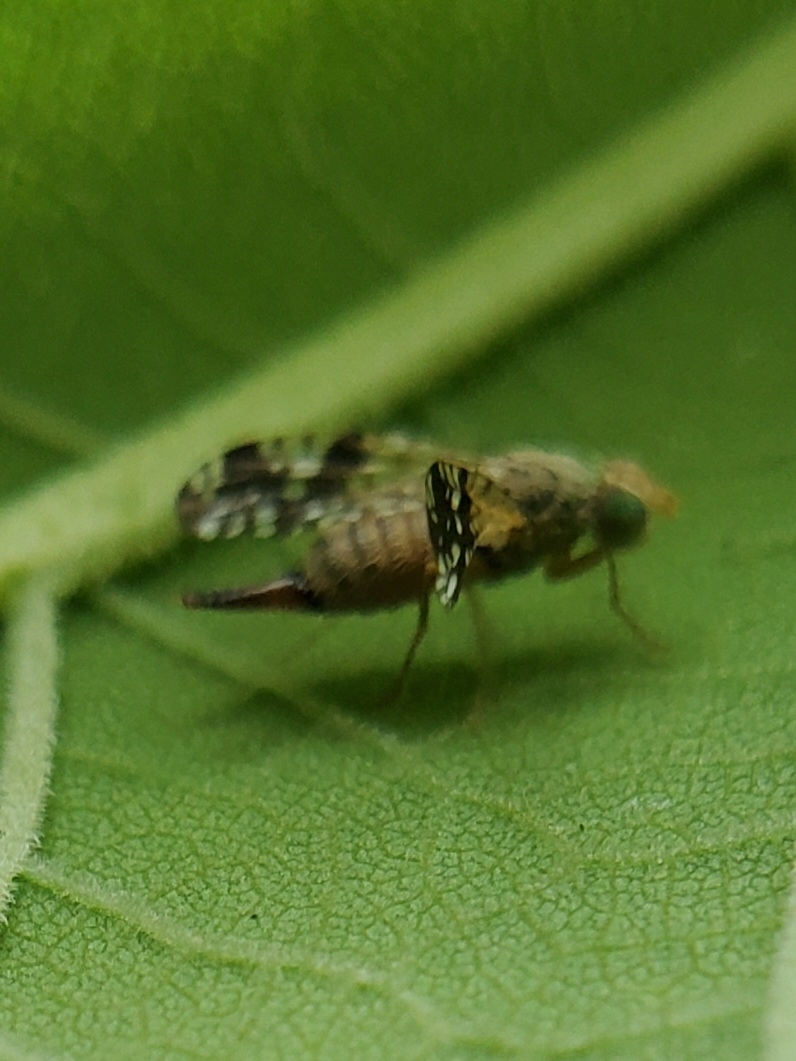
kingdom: Animalia
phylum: Arthropoda
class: Insecta
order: Diptera
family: Tephritidae
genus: Neotephritis
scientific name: Neotephritis finalis
